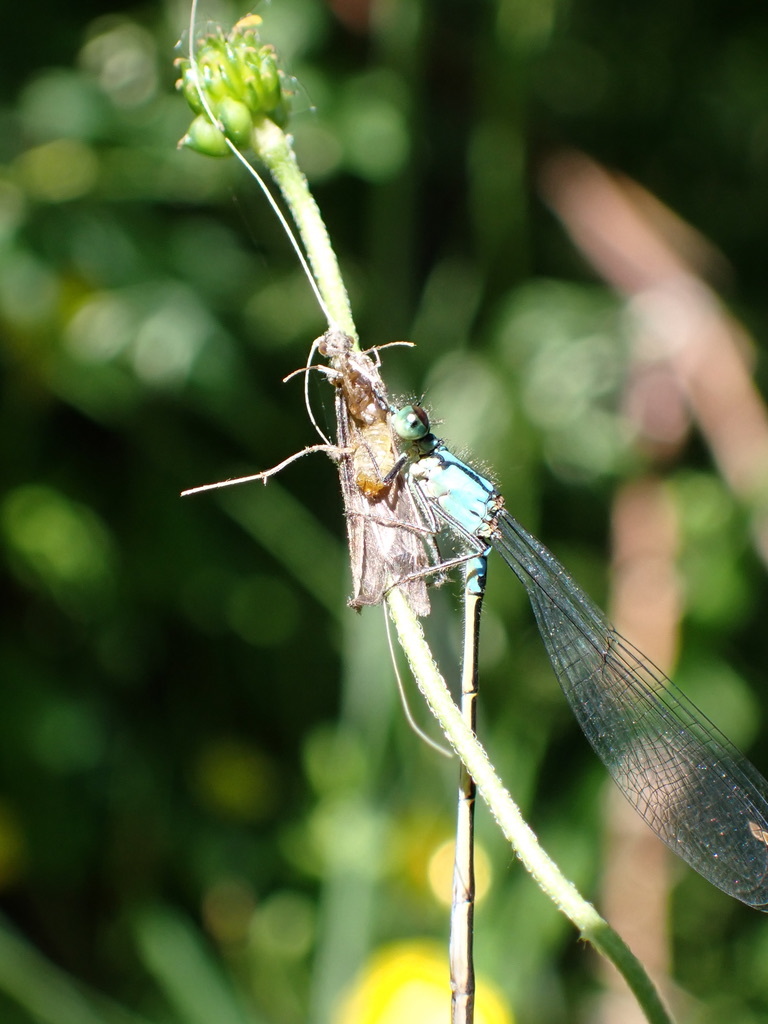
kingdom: Animalia
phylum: Arthropoda
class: Insecta
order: Odonata
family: Coenagrionidae
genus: Ischnura
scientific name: Ischnura cervula
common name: Pacific forktail
